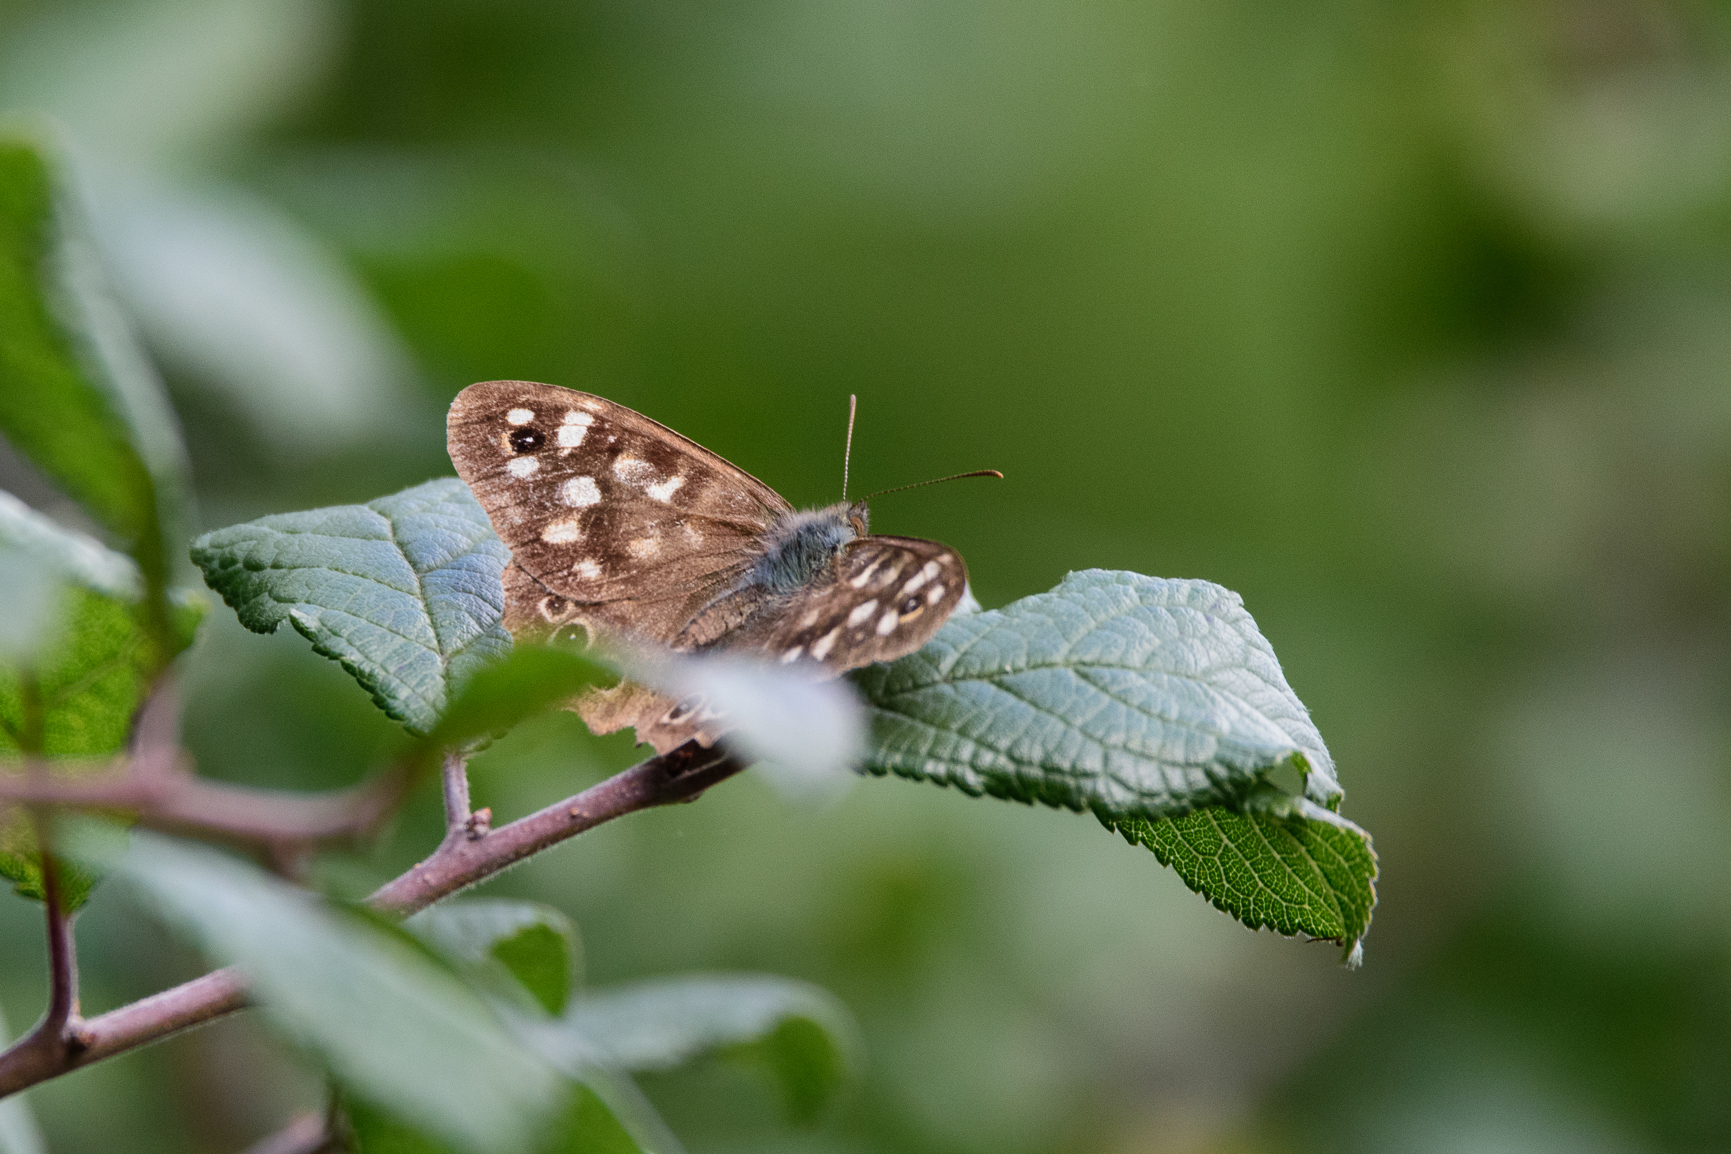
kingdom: Animalia
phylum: Arthropoda
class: Insecta
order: Lepidoptera
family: Nymphalidae
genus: Pararge
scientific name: Pararge aegeria
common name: Speckled wood
